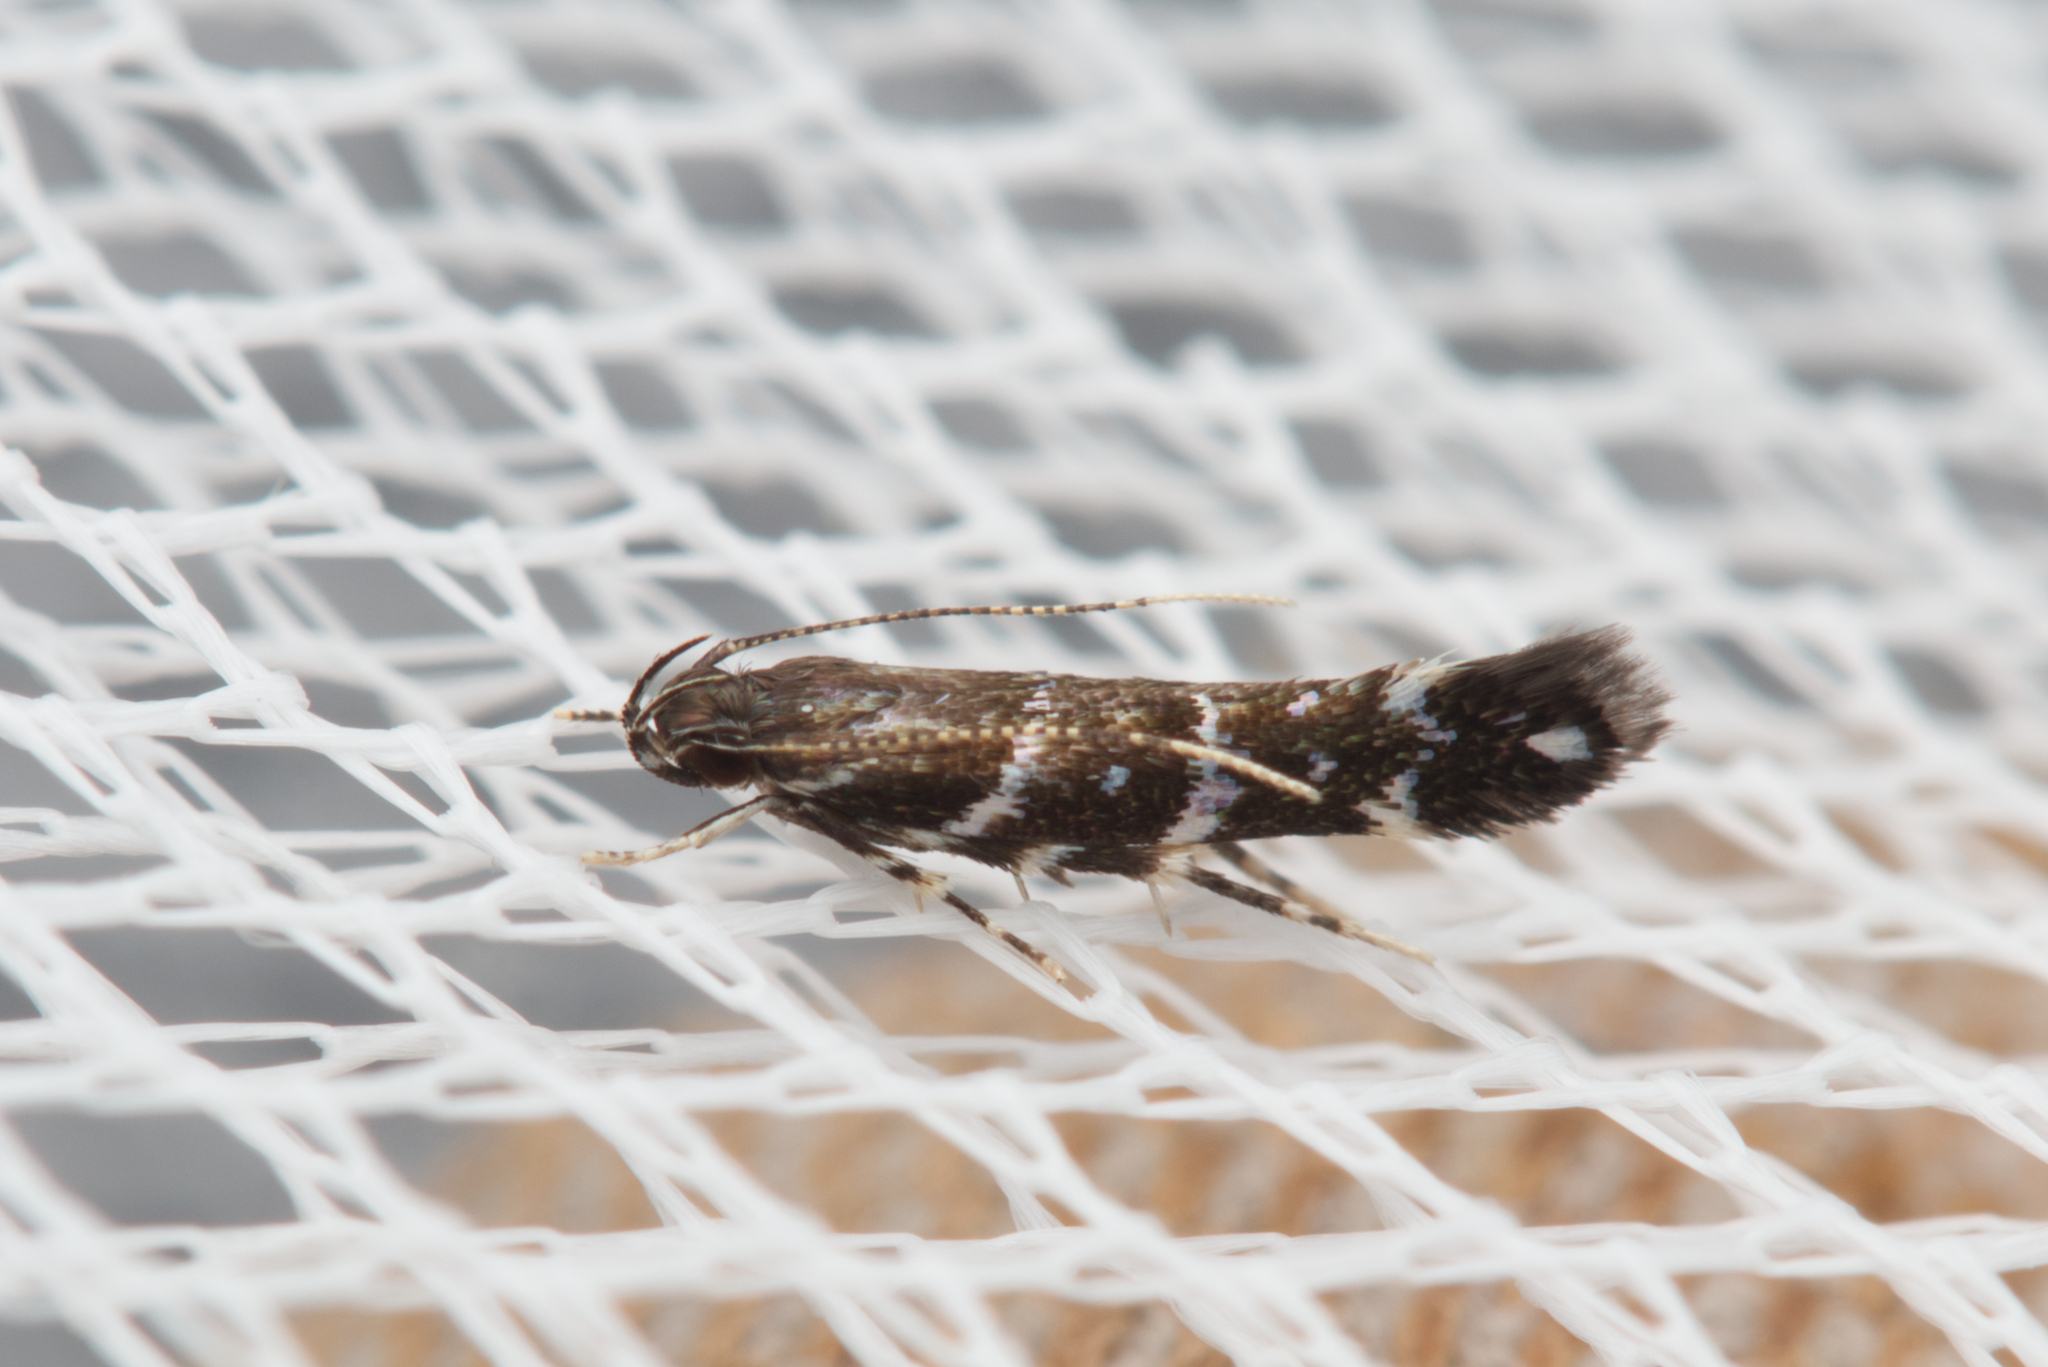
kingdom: Animalia
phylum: Arthropoda
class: Insecta
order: Lepidoptera
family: Cosmopterigidae
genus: Stagmatophora
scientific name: Stagmatophora argyrostrepta
